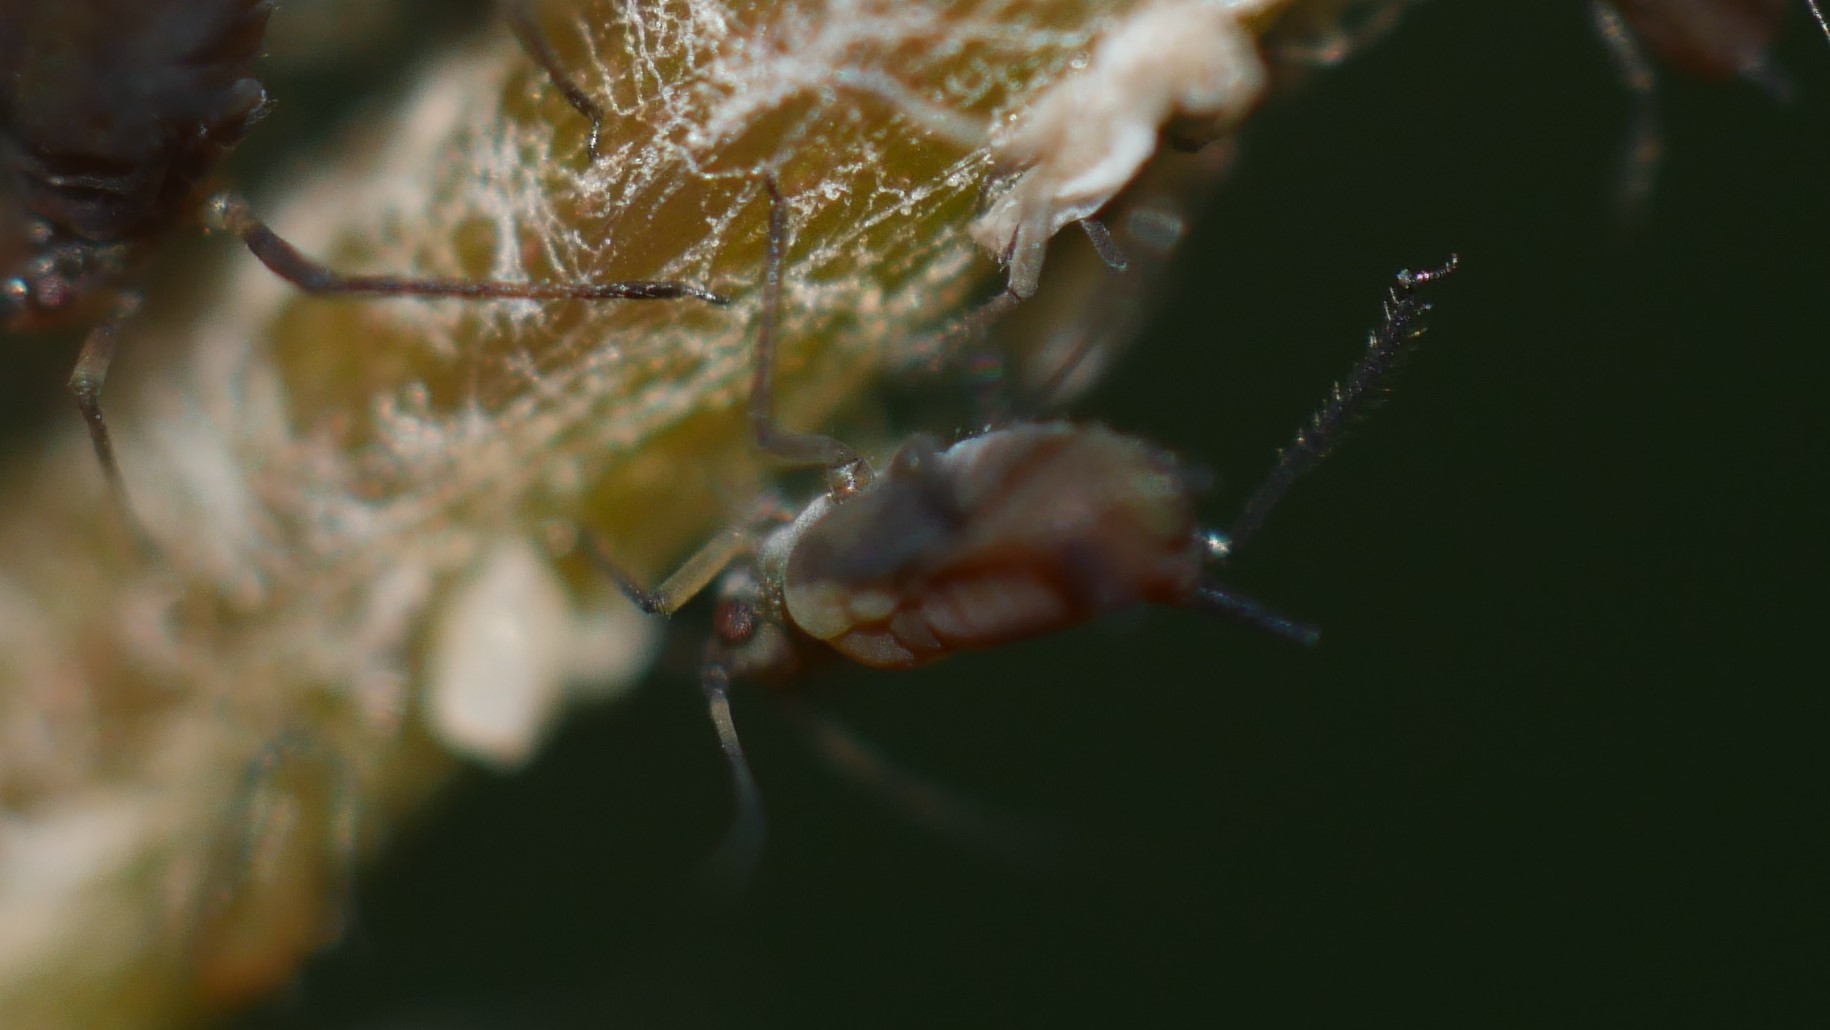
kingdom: Animalia
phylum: Arthropoda
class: Insecta
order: Hemiptera
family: Aphididae
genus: Aphis
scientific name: Aphis illinoisensis
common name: Grapevine aphid
